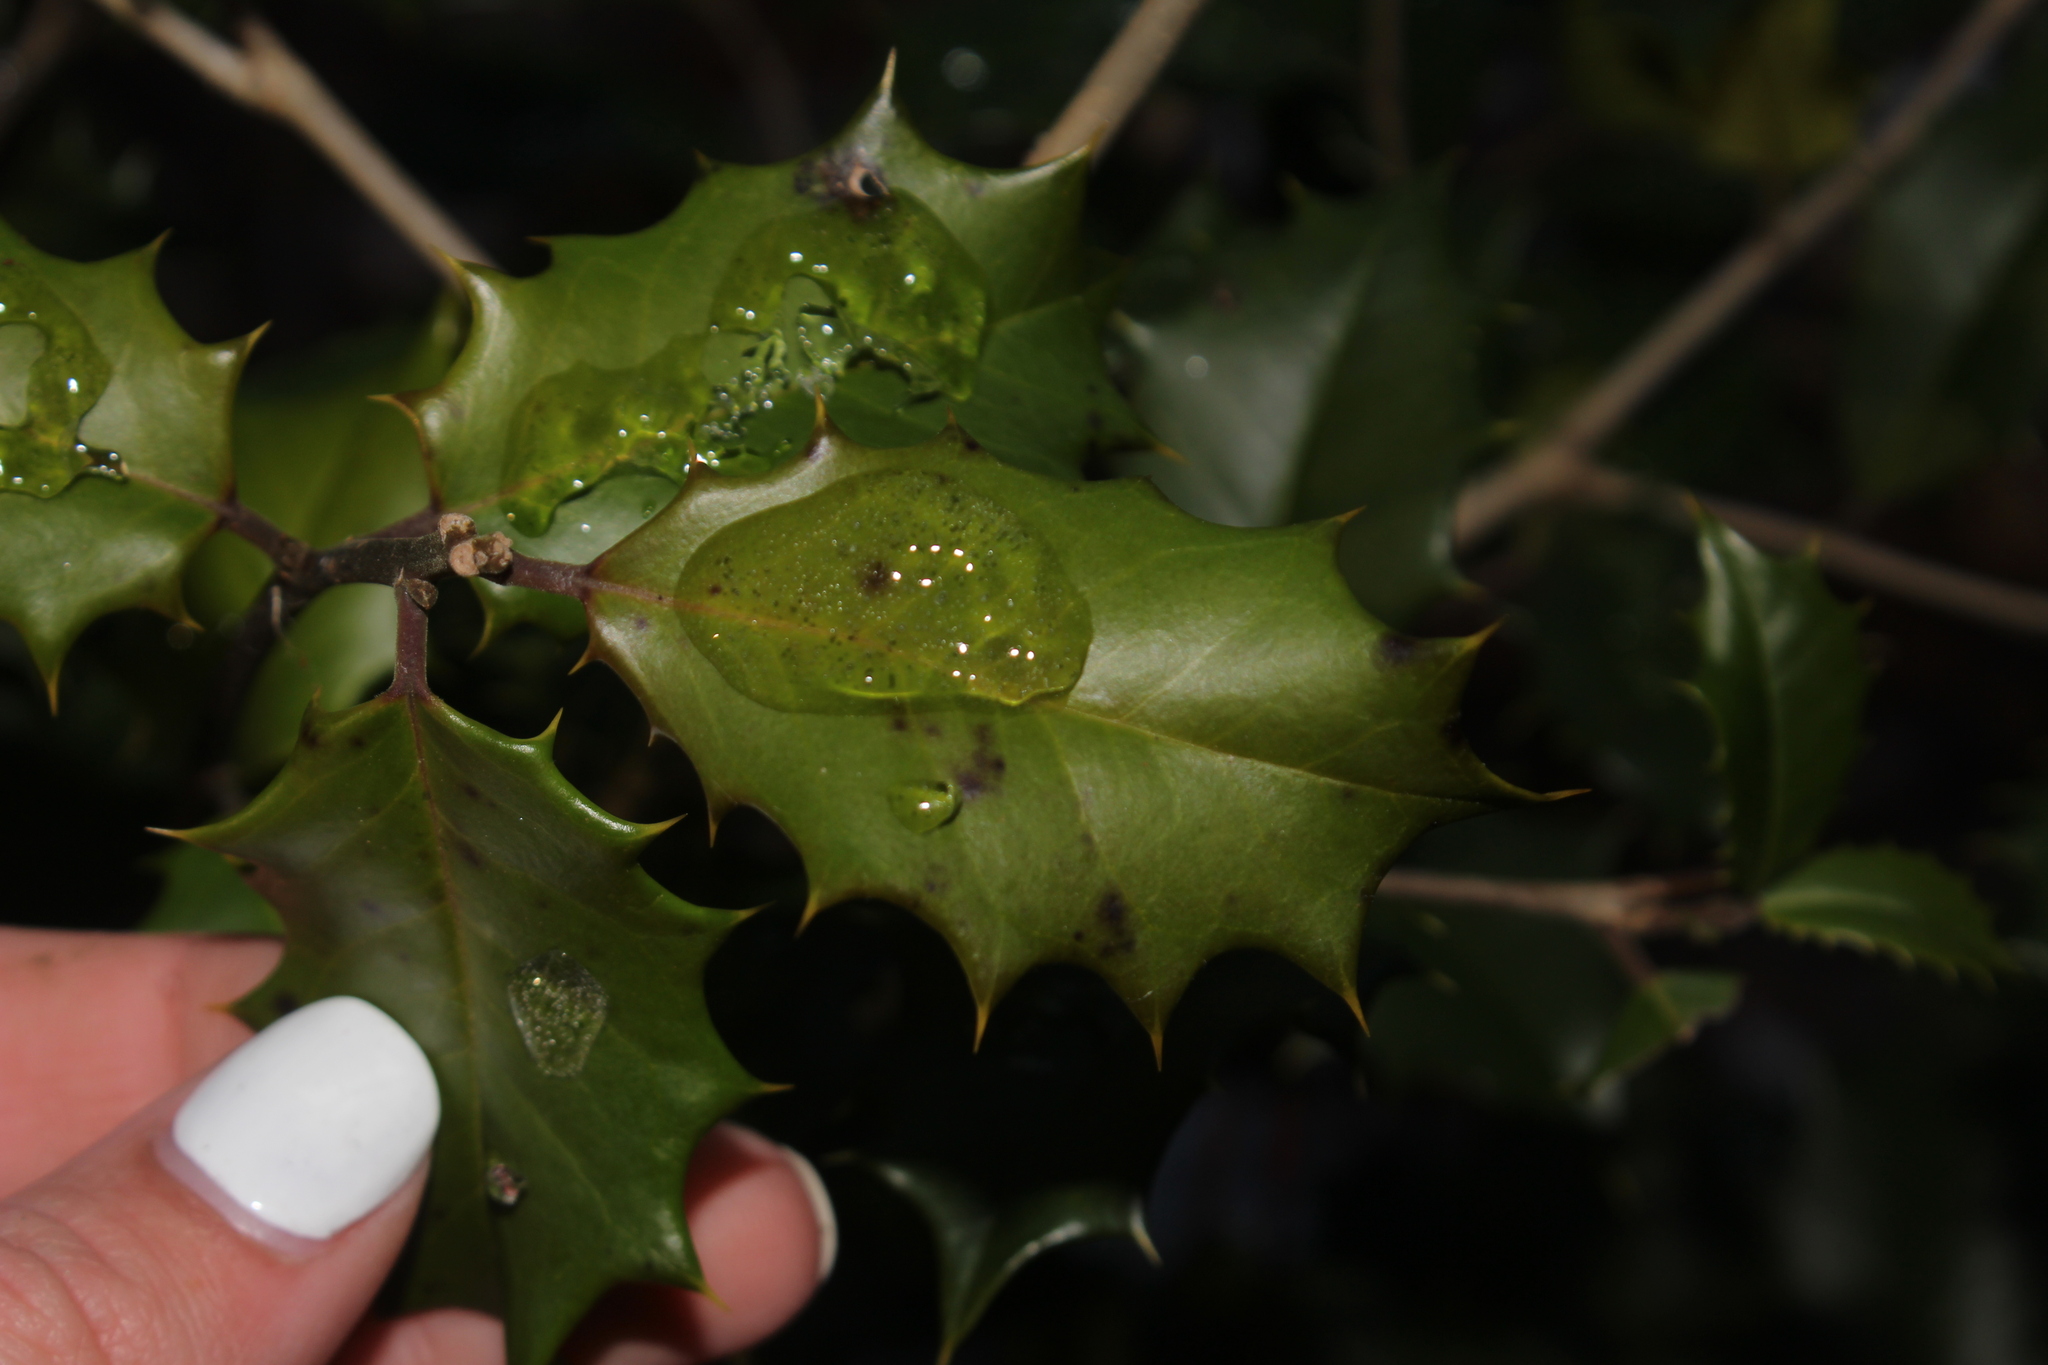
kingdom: Plantae
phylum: Tracheophyta
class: Magnoliopsida
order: Aquifoliales
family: Aquifoliaceae
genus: Ilex
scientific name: Ilex opaca
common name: American holly
